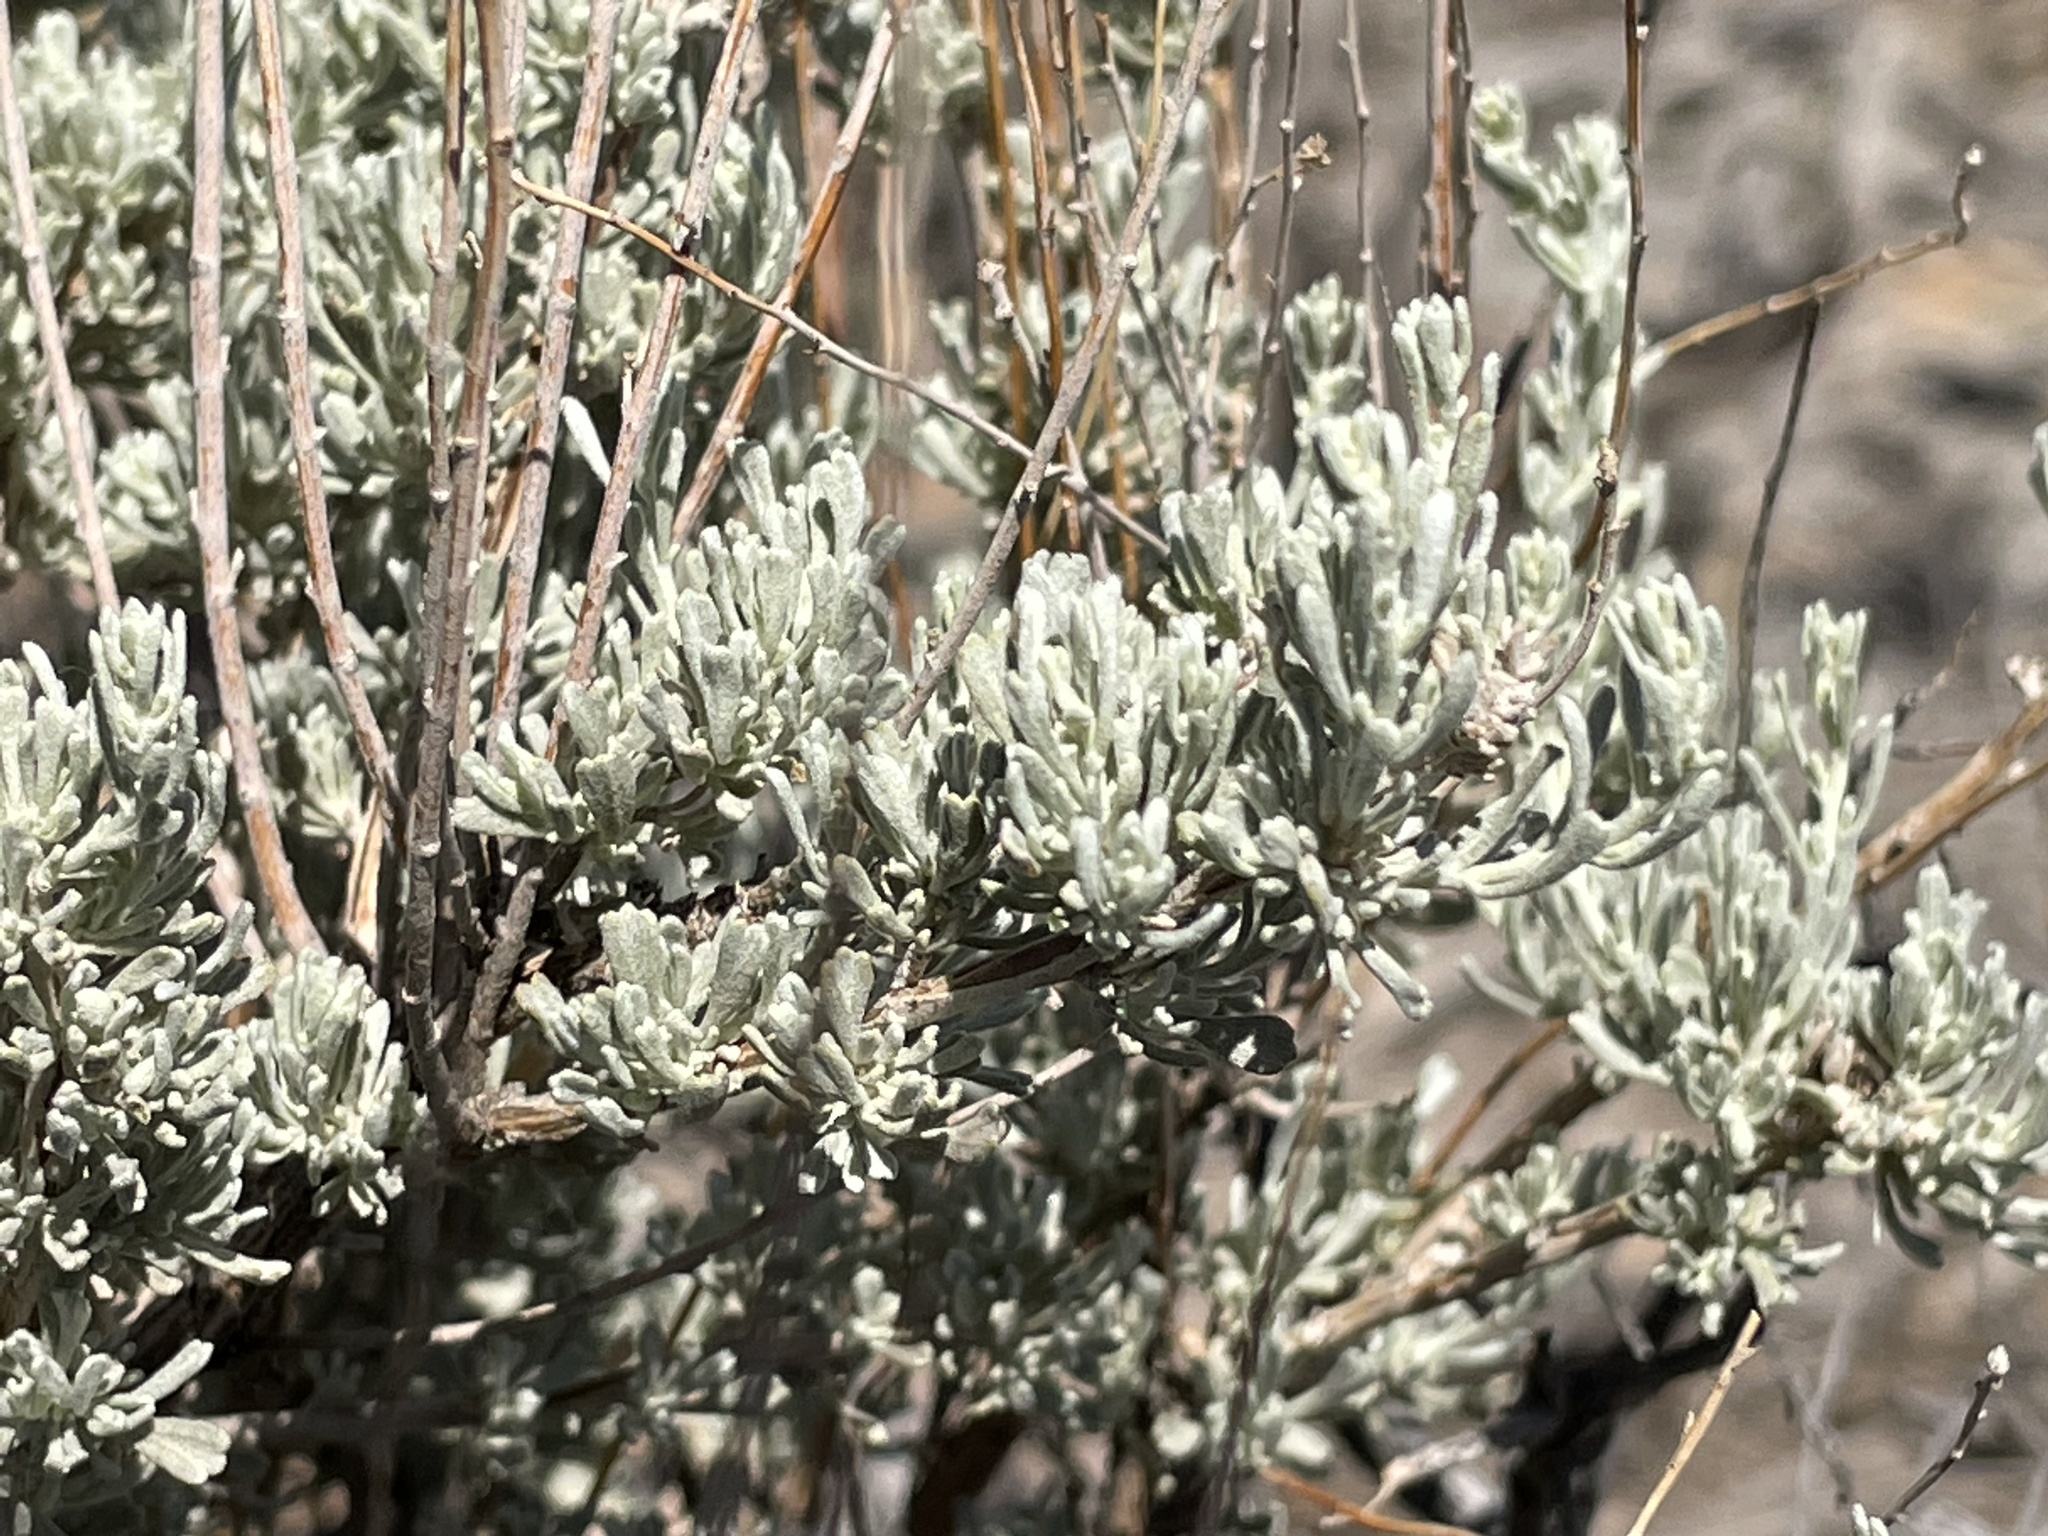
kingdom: Plantae
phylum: Tracheophyta
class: Magnoliopsida
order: Asterales
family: Asteraceae
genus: Artemisia
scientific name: Artemisia tridentata
